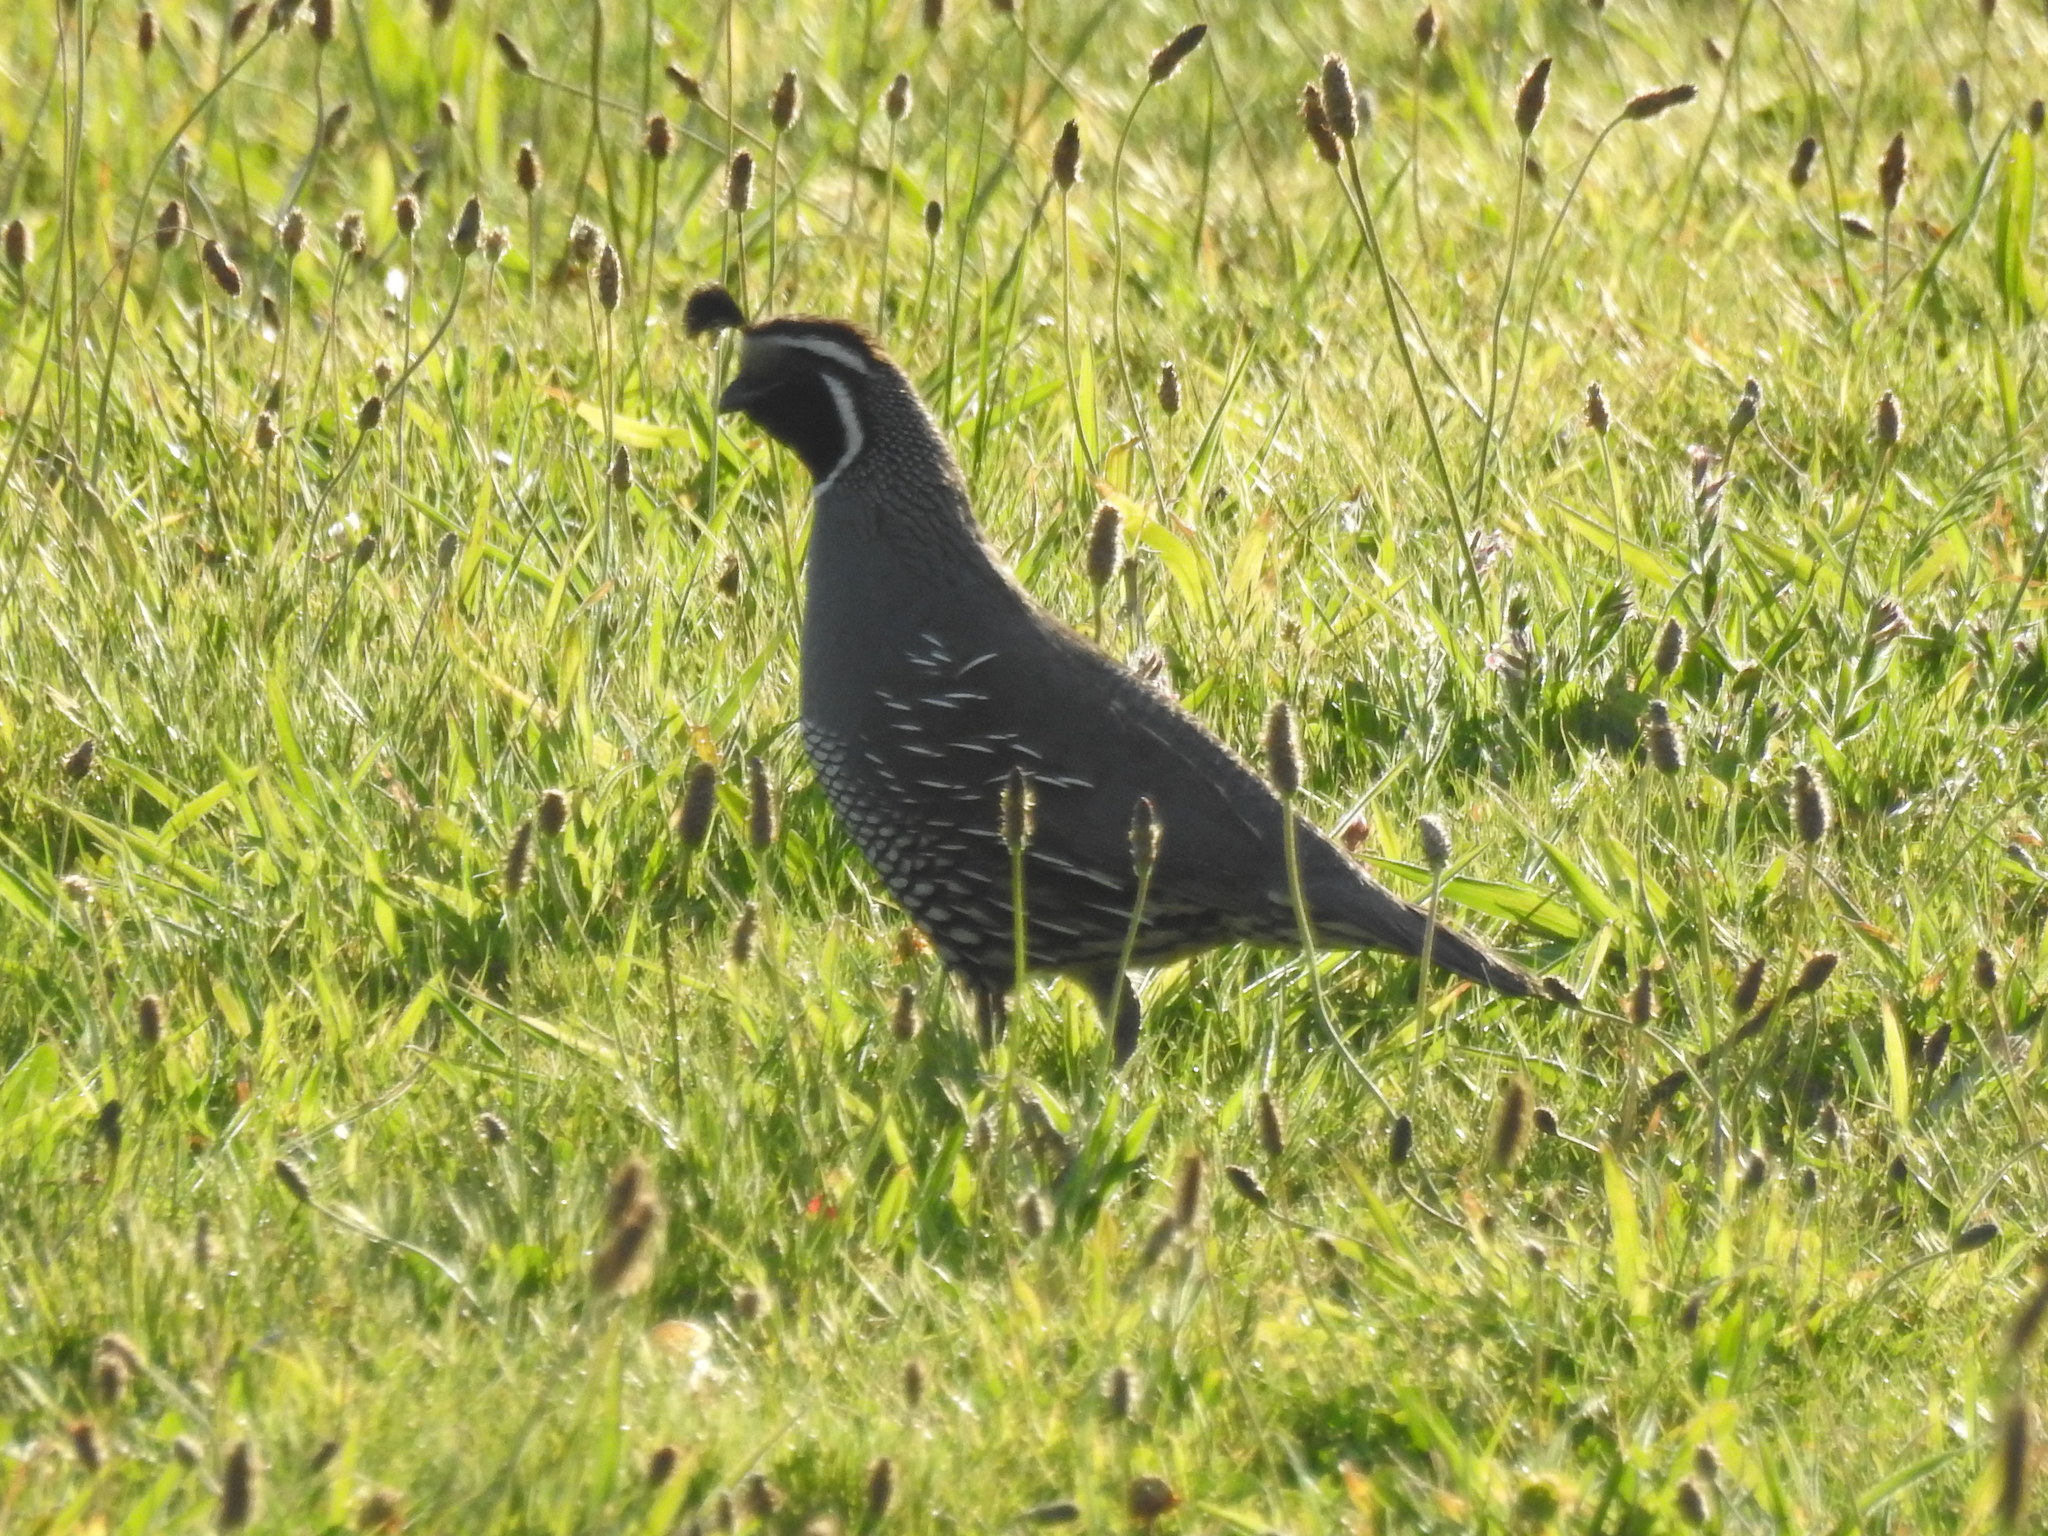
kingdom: Animalia
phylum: Chordata
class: Aves
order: Galliformes
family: Odontophoridae
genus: Callipepla
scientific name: Callipepla californica
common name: California quail
